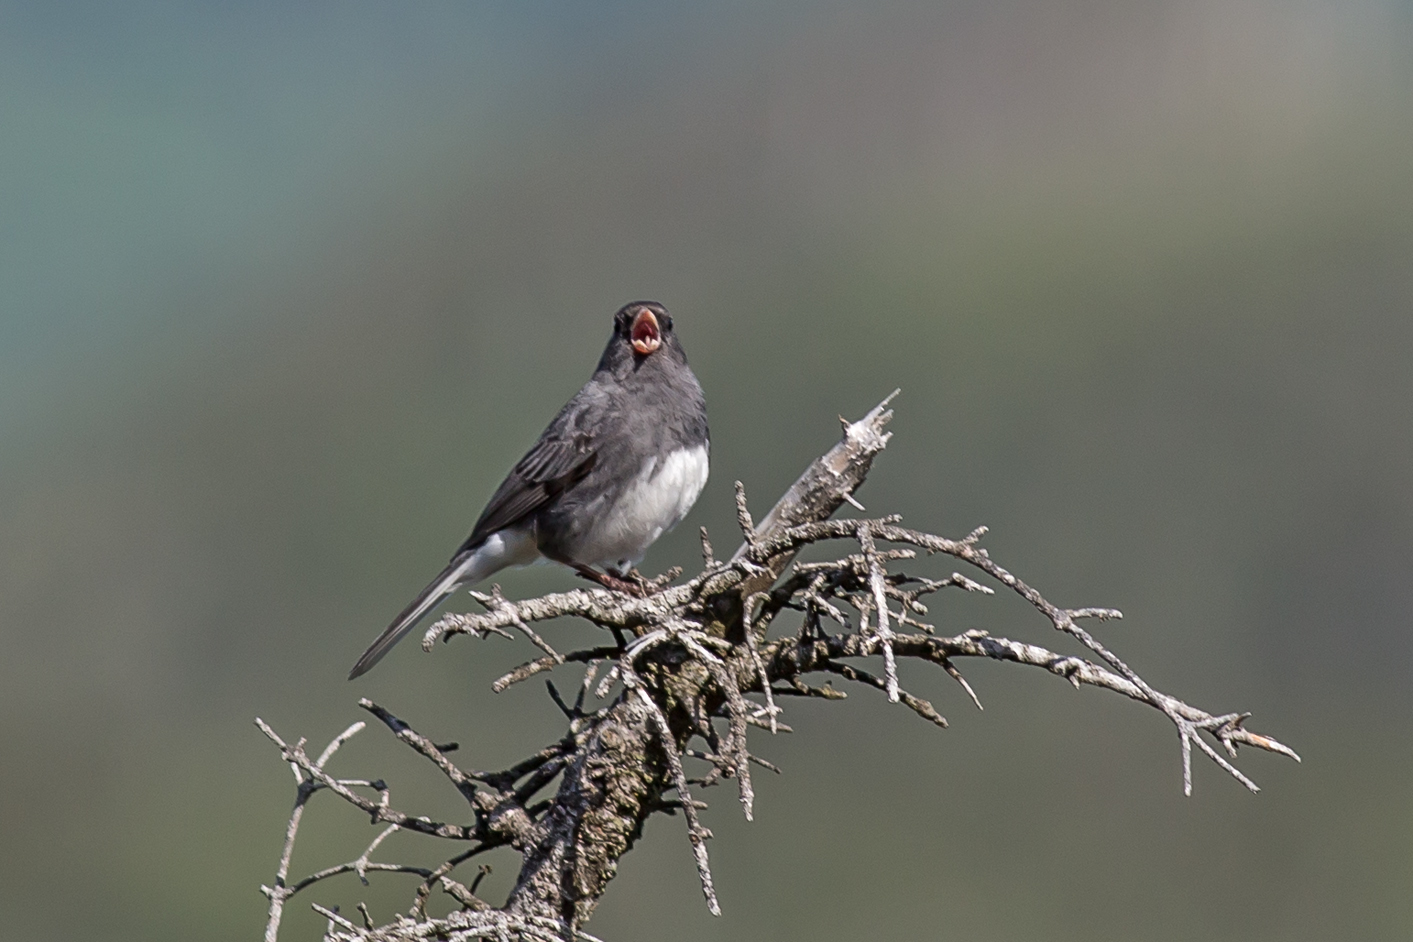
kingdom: Animalia
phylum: Chordata
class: Aves
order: Passeriformes
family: Passerellidae
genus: Junco
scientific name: Junco hyemalis
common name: Dark-eyed junco
